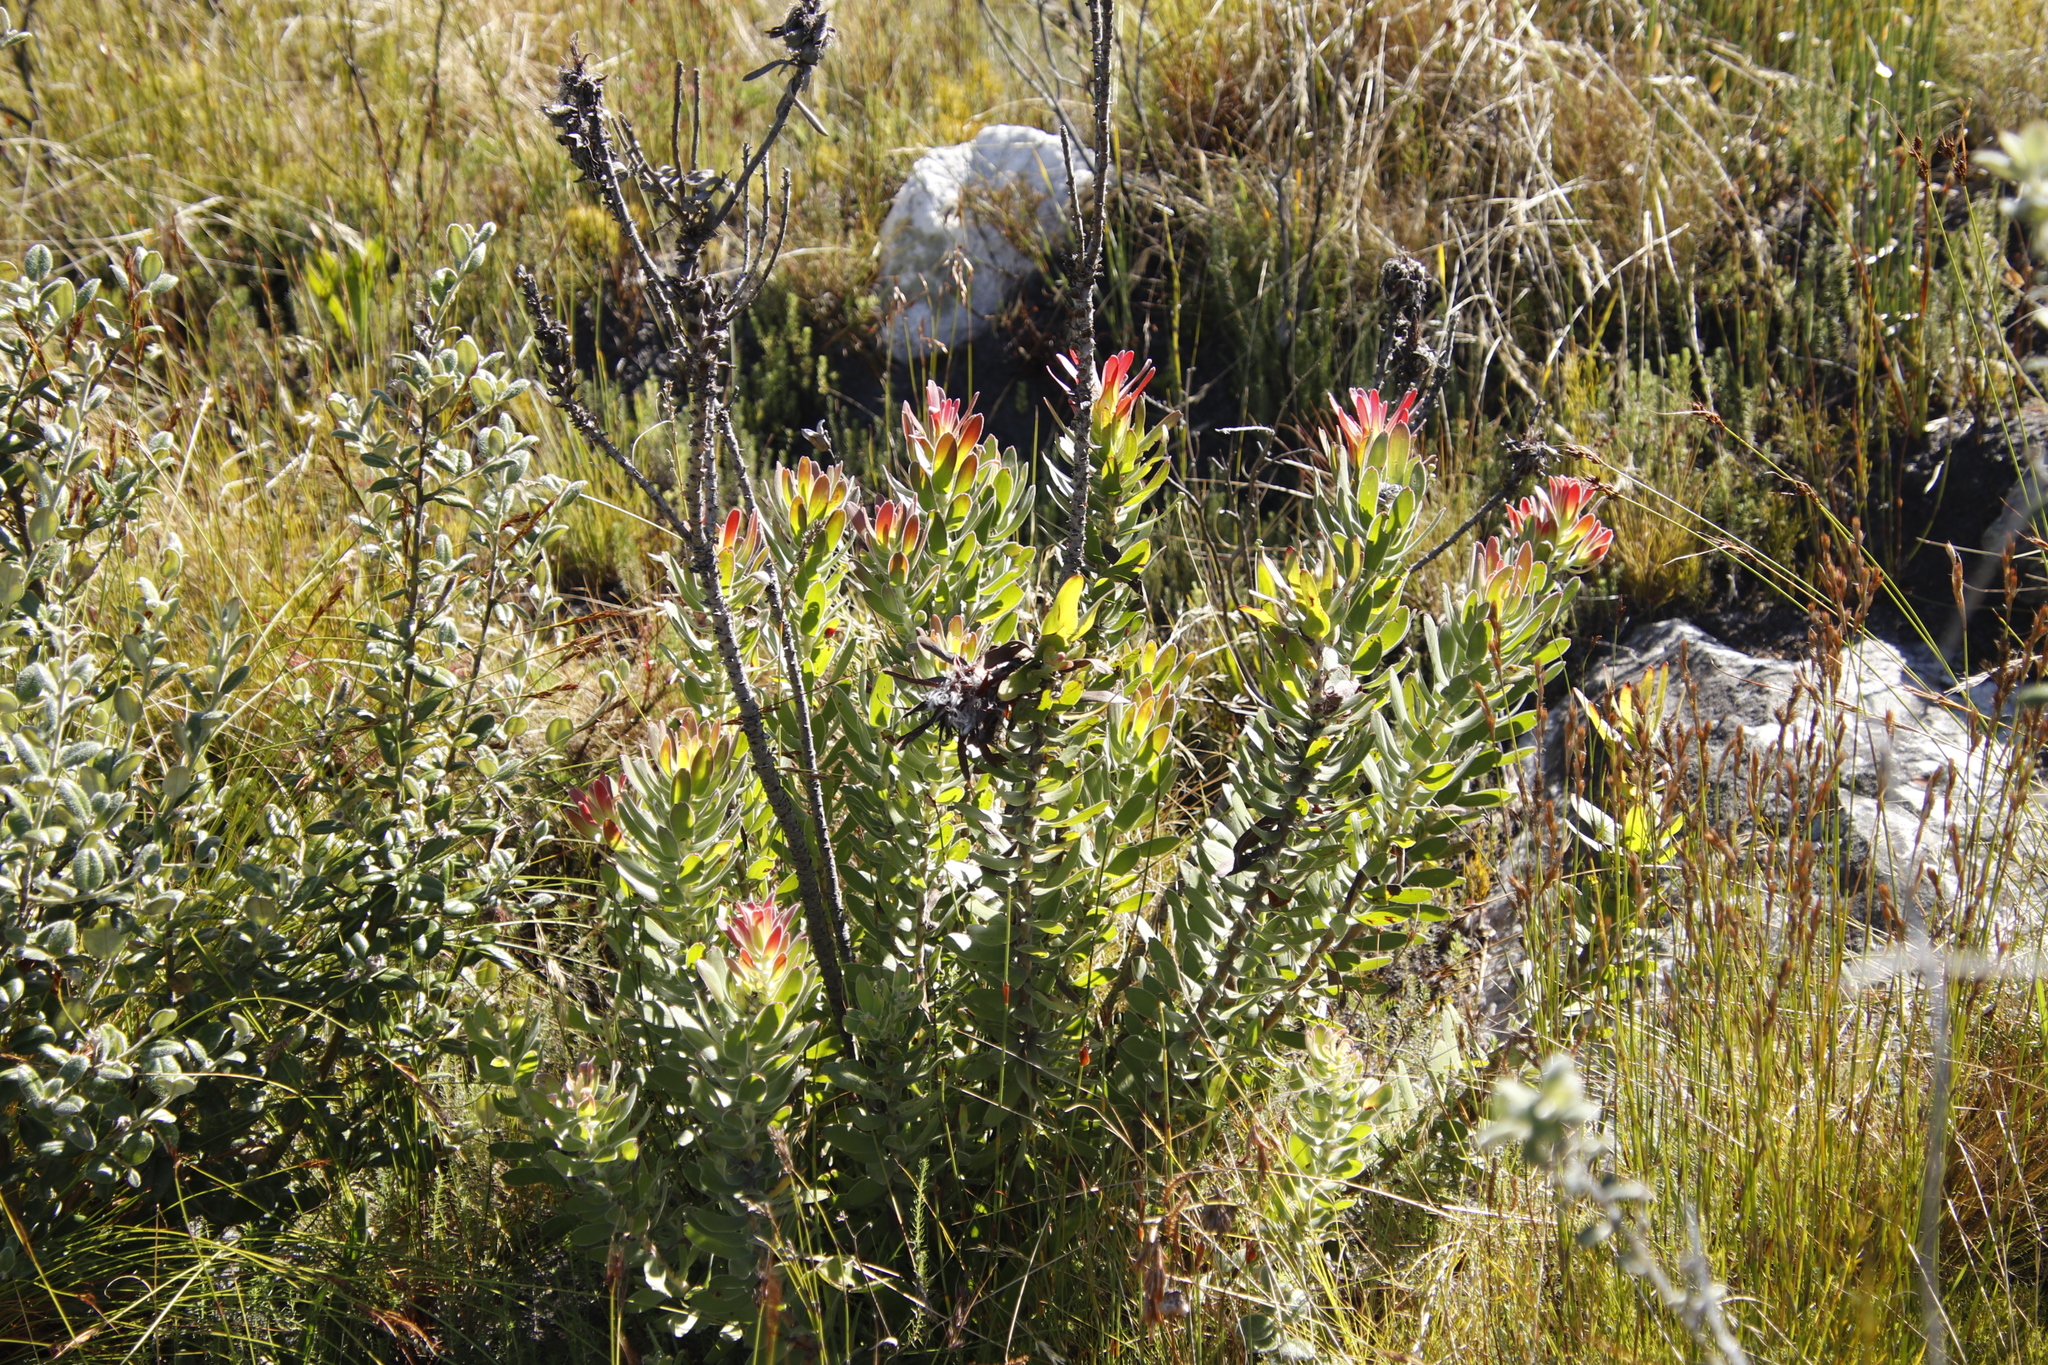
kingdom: Plantae
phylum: Tracheophyta
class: Magnoliopsida
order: Proteales
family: Proteaceae
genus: Mimetes
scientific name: Mimetes cucullatus
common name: Common pagoda
